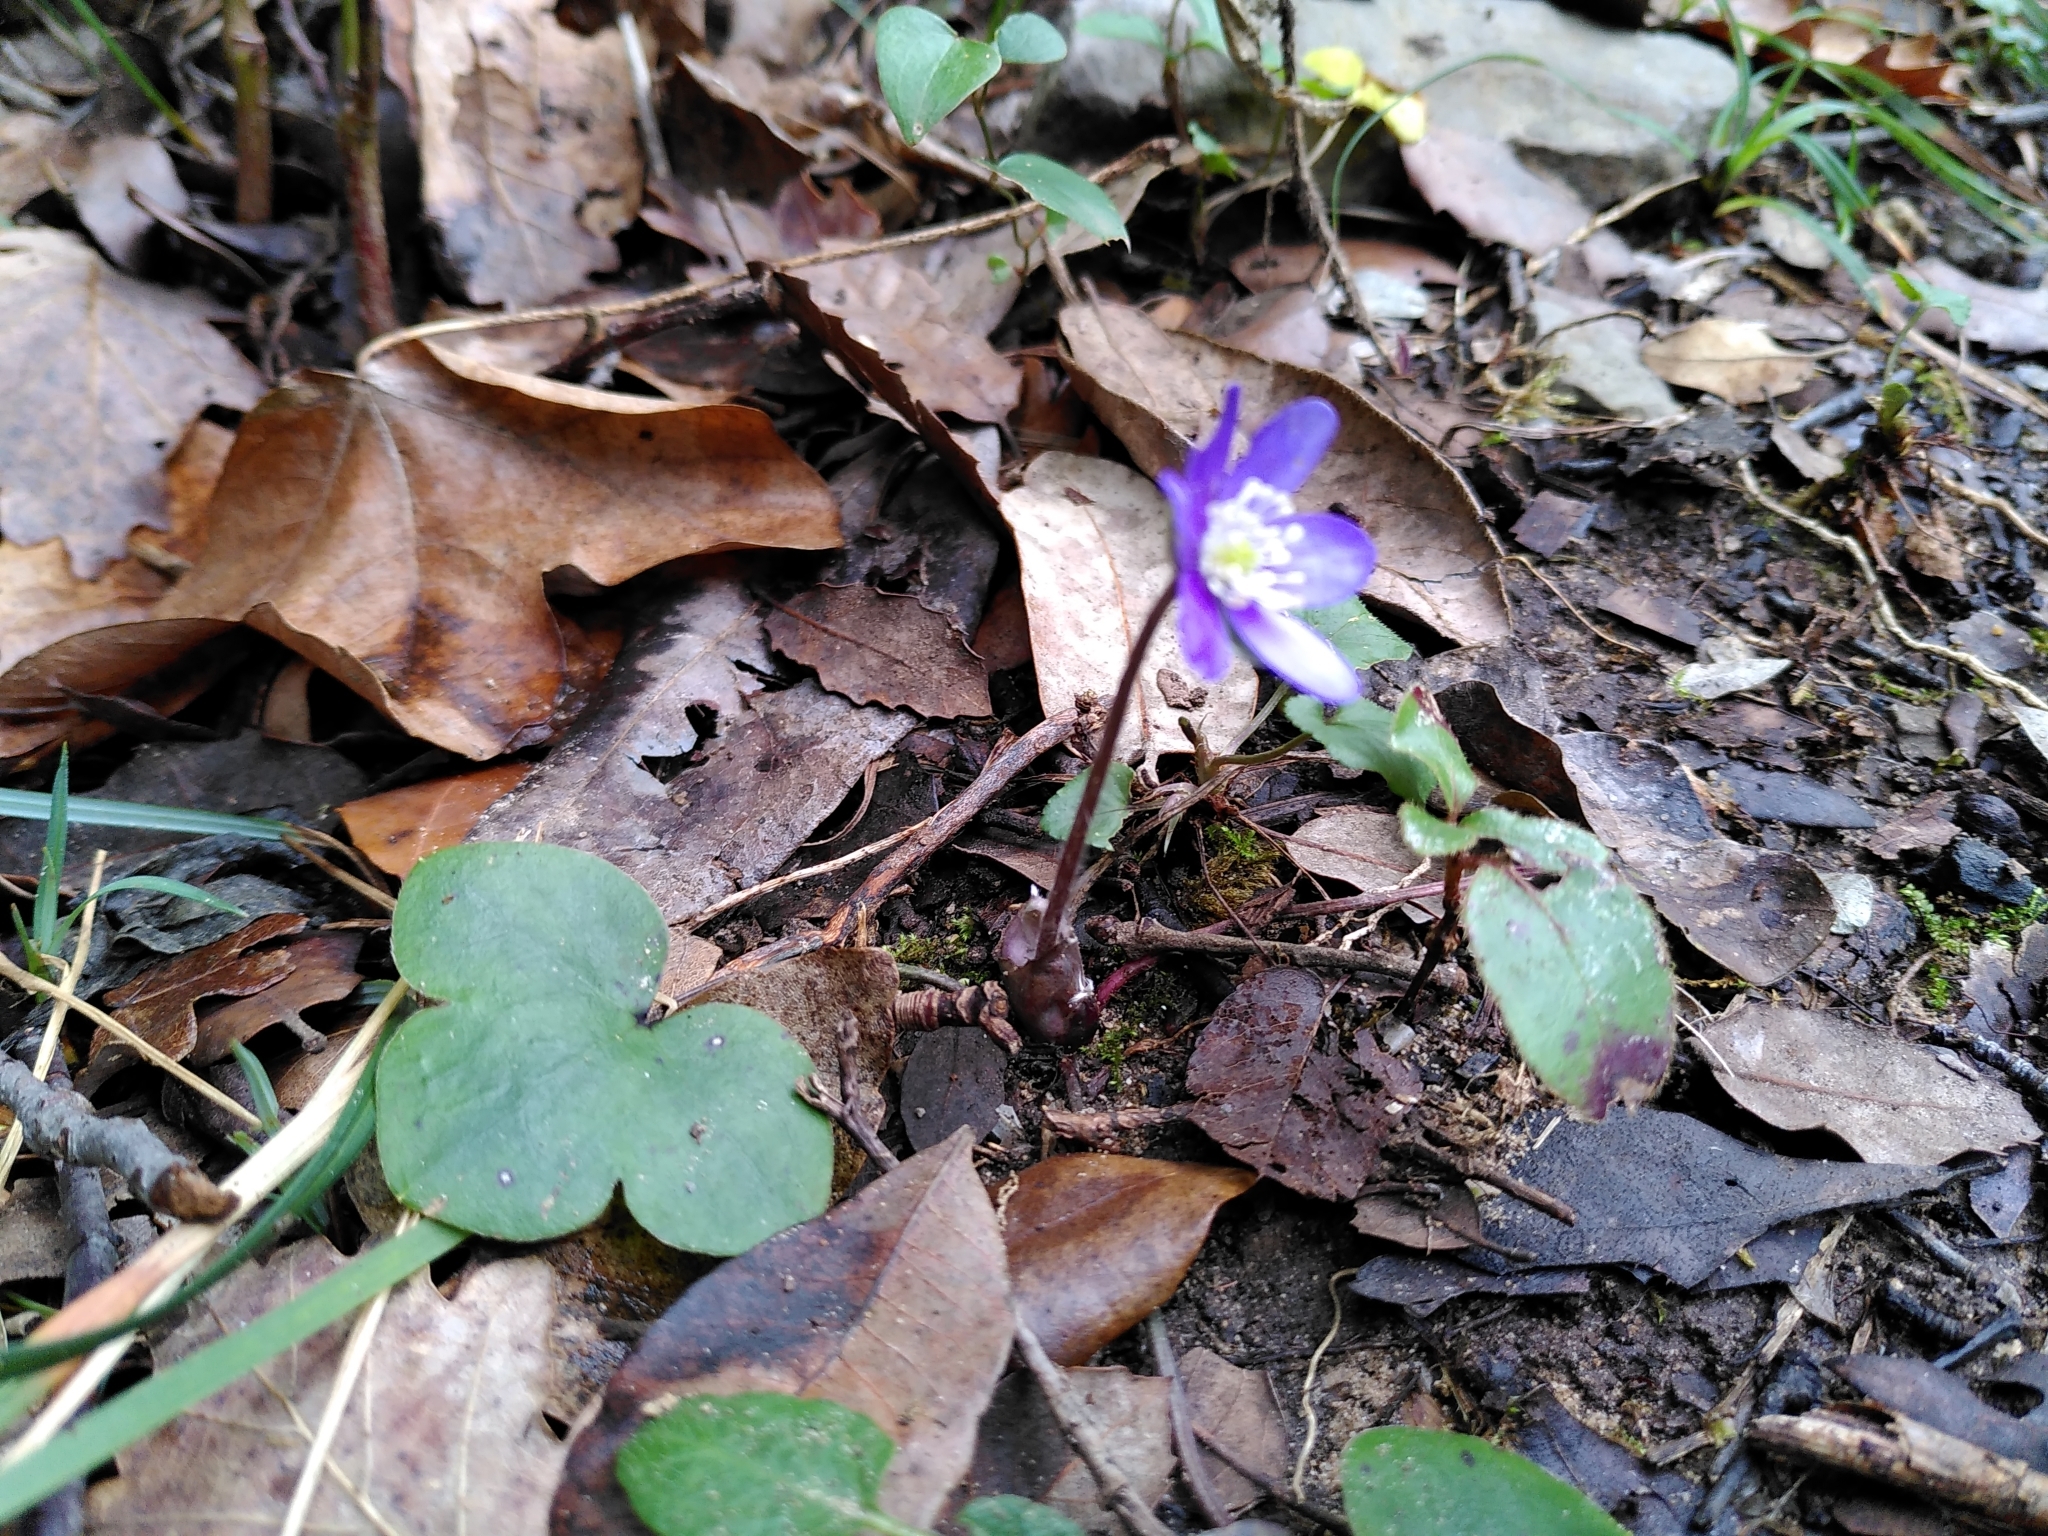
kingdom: Plantae
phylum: Tracheophyta
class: Magnoliopsida
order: Ranunculales
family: Ranunculaceae
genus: Hepatica
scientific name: Hepatica nobilis
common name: Liverleaf
